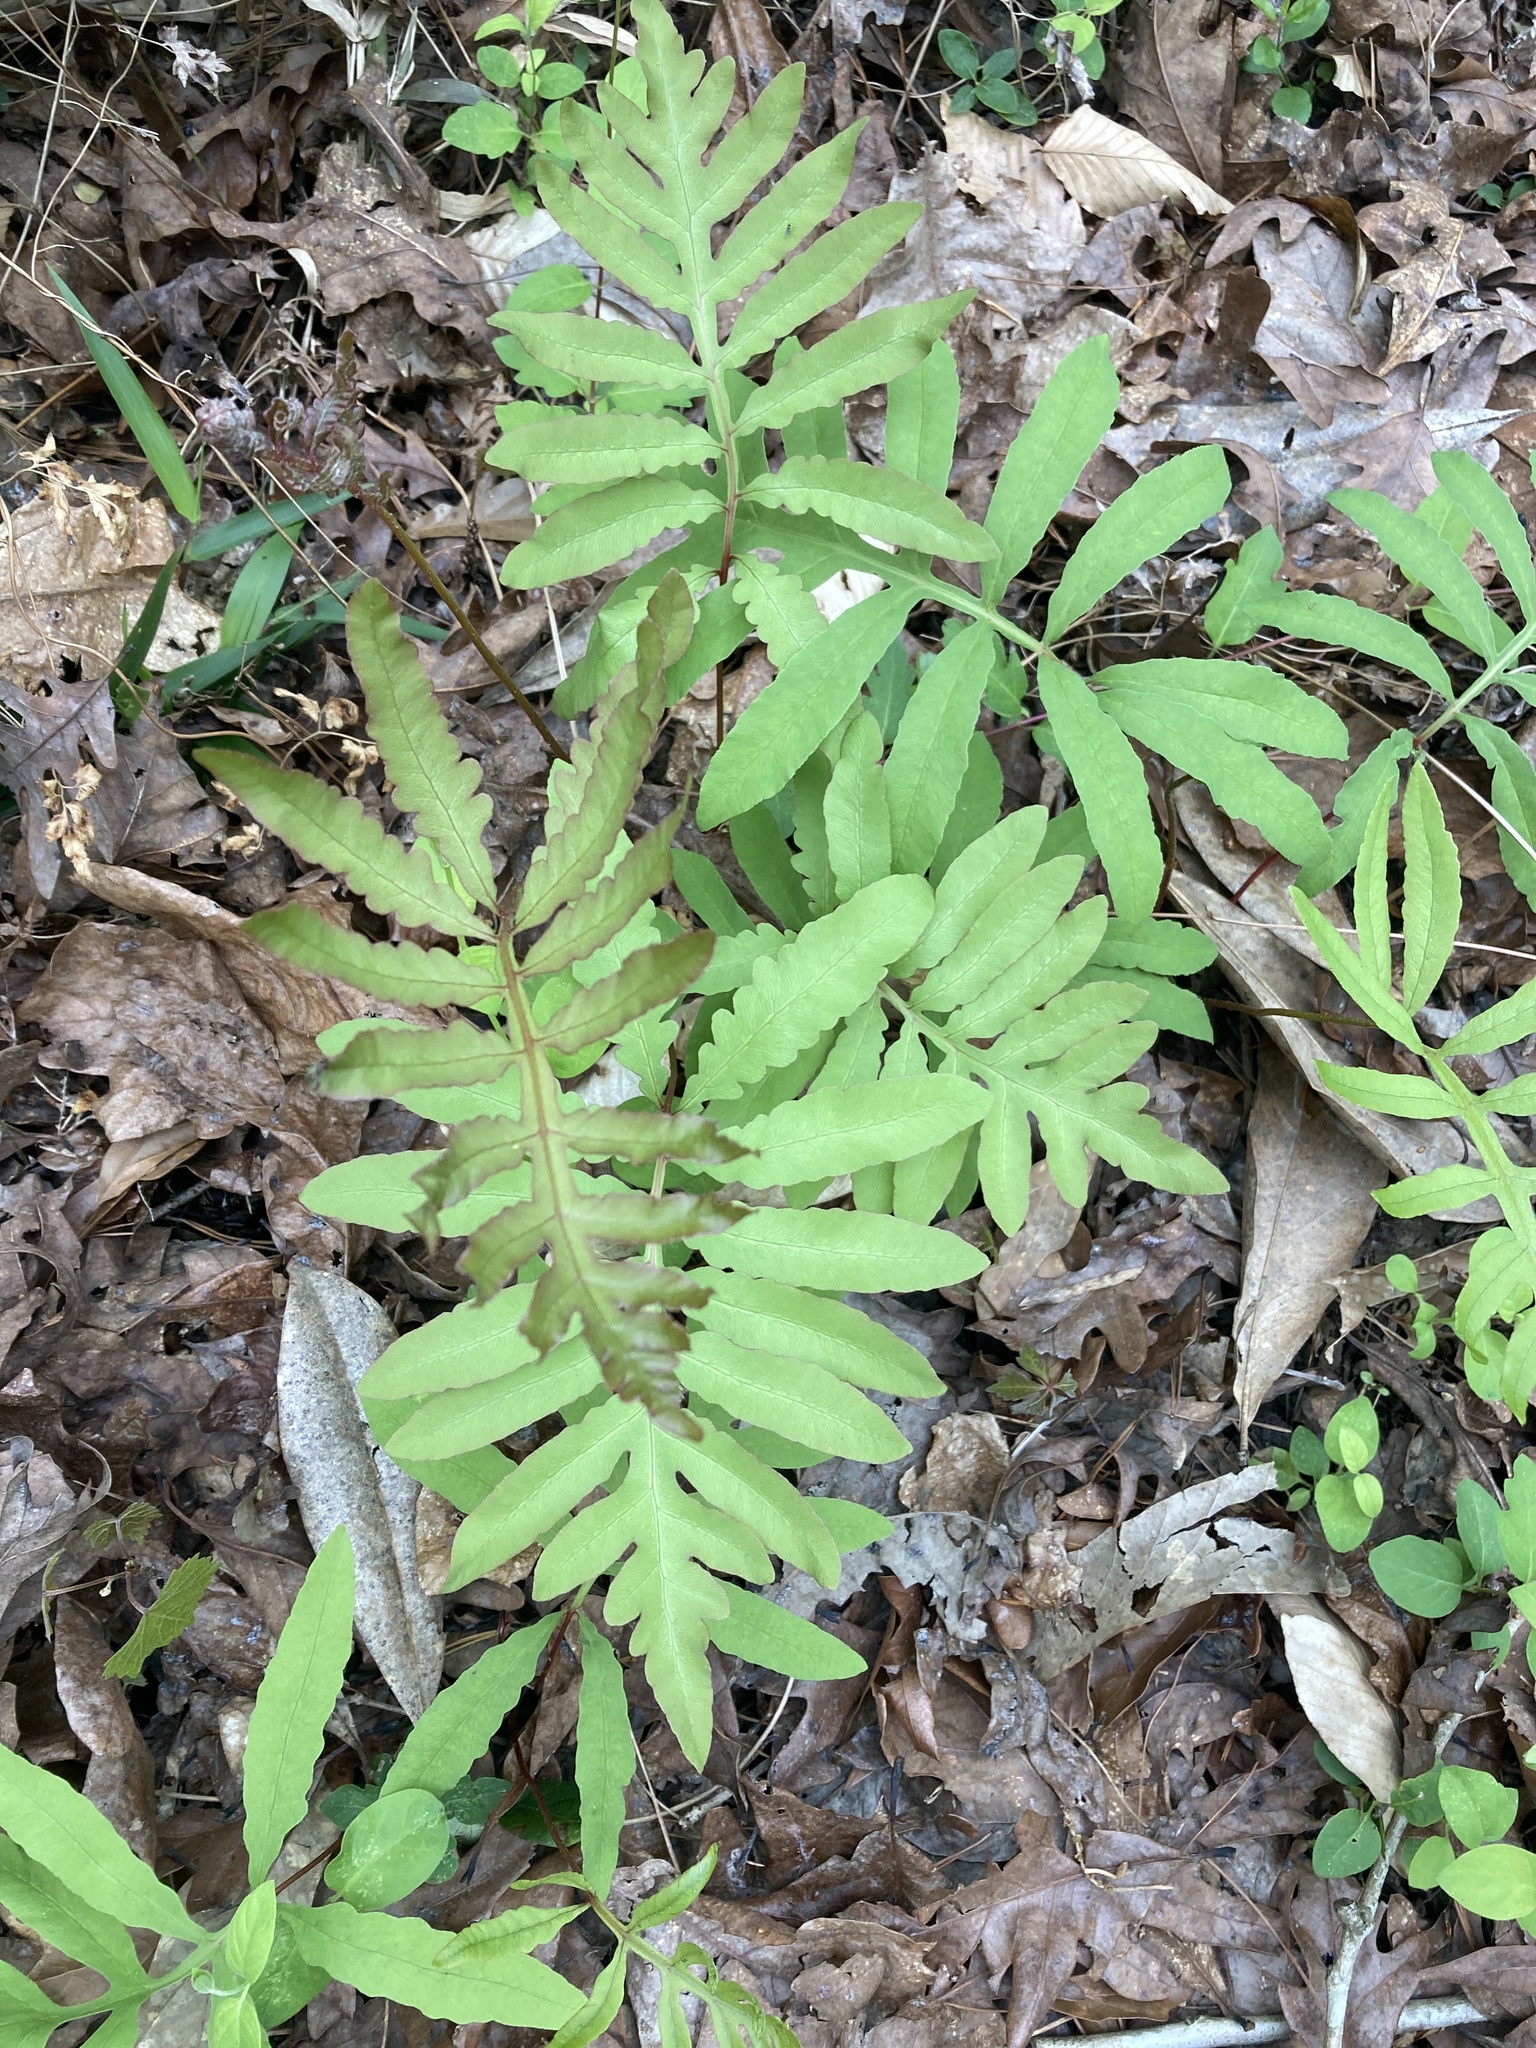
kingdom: Plantae
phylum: Tracheophyta
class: Polypodiopsida
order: Polypodiales
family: Onocleaceae
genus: Onoclea
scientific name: Onoclea sensibilis
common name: Sensitive fern
